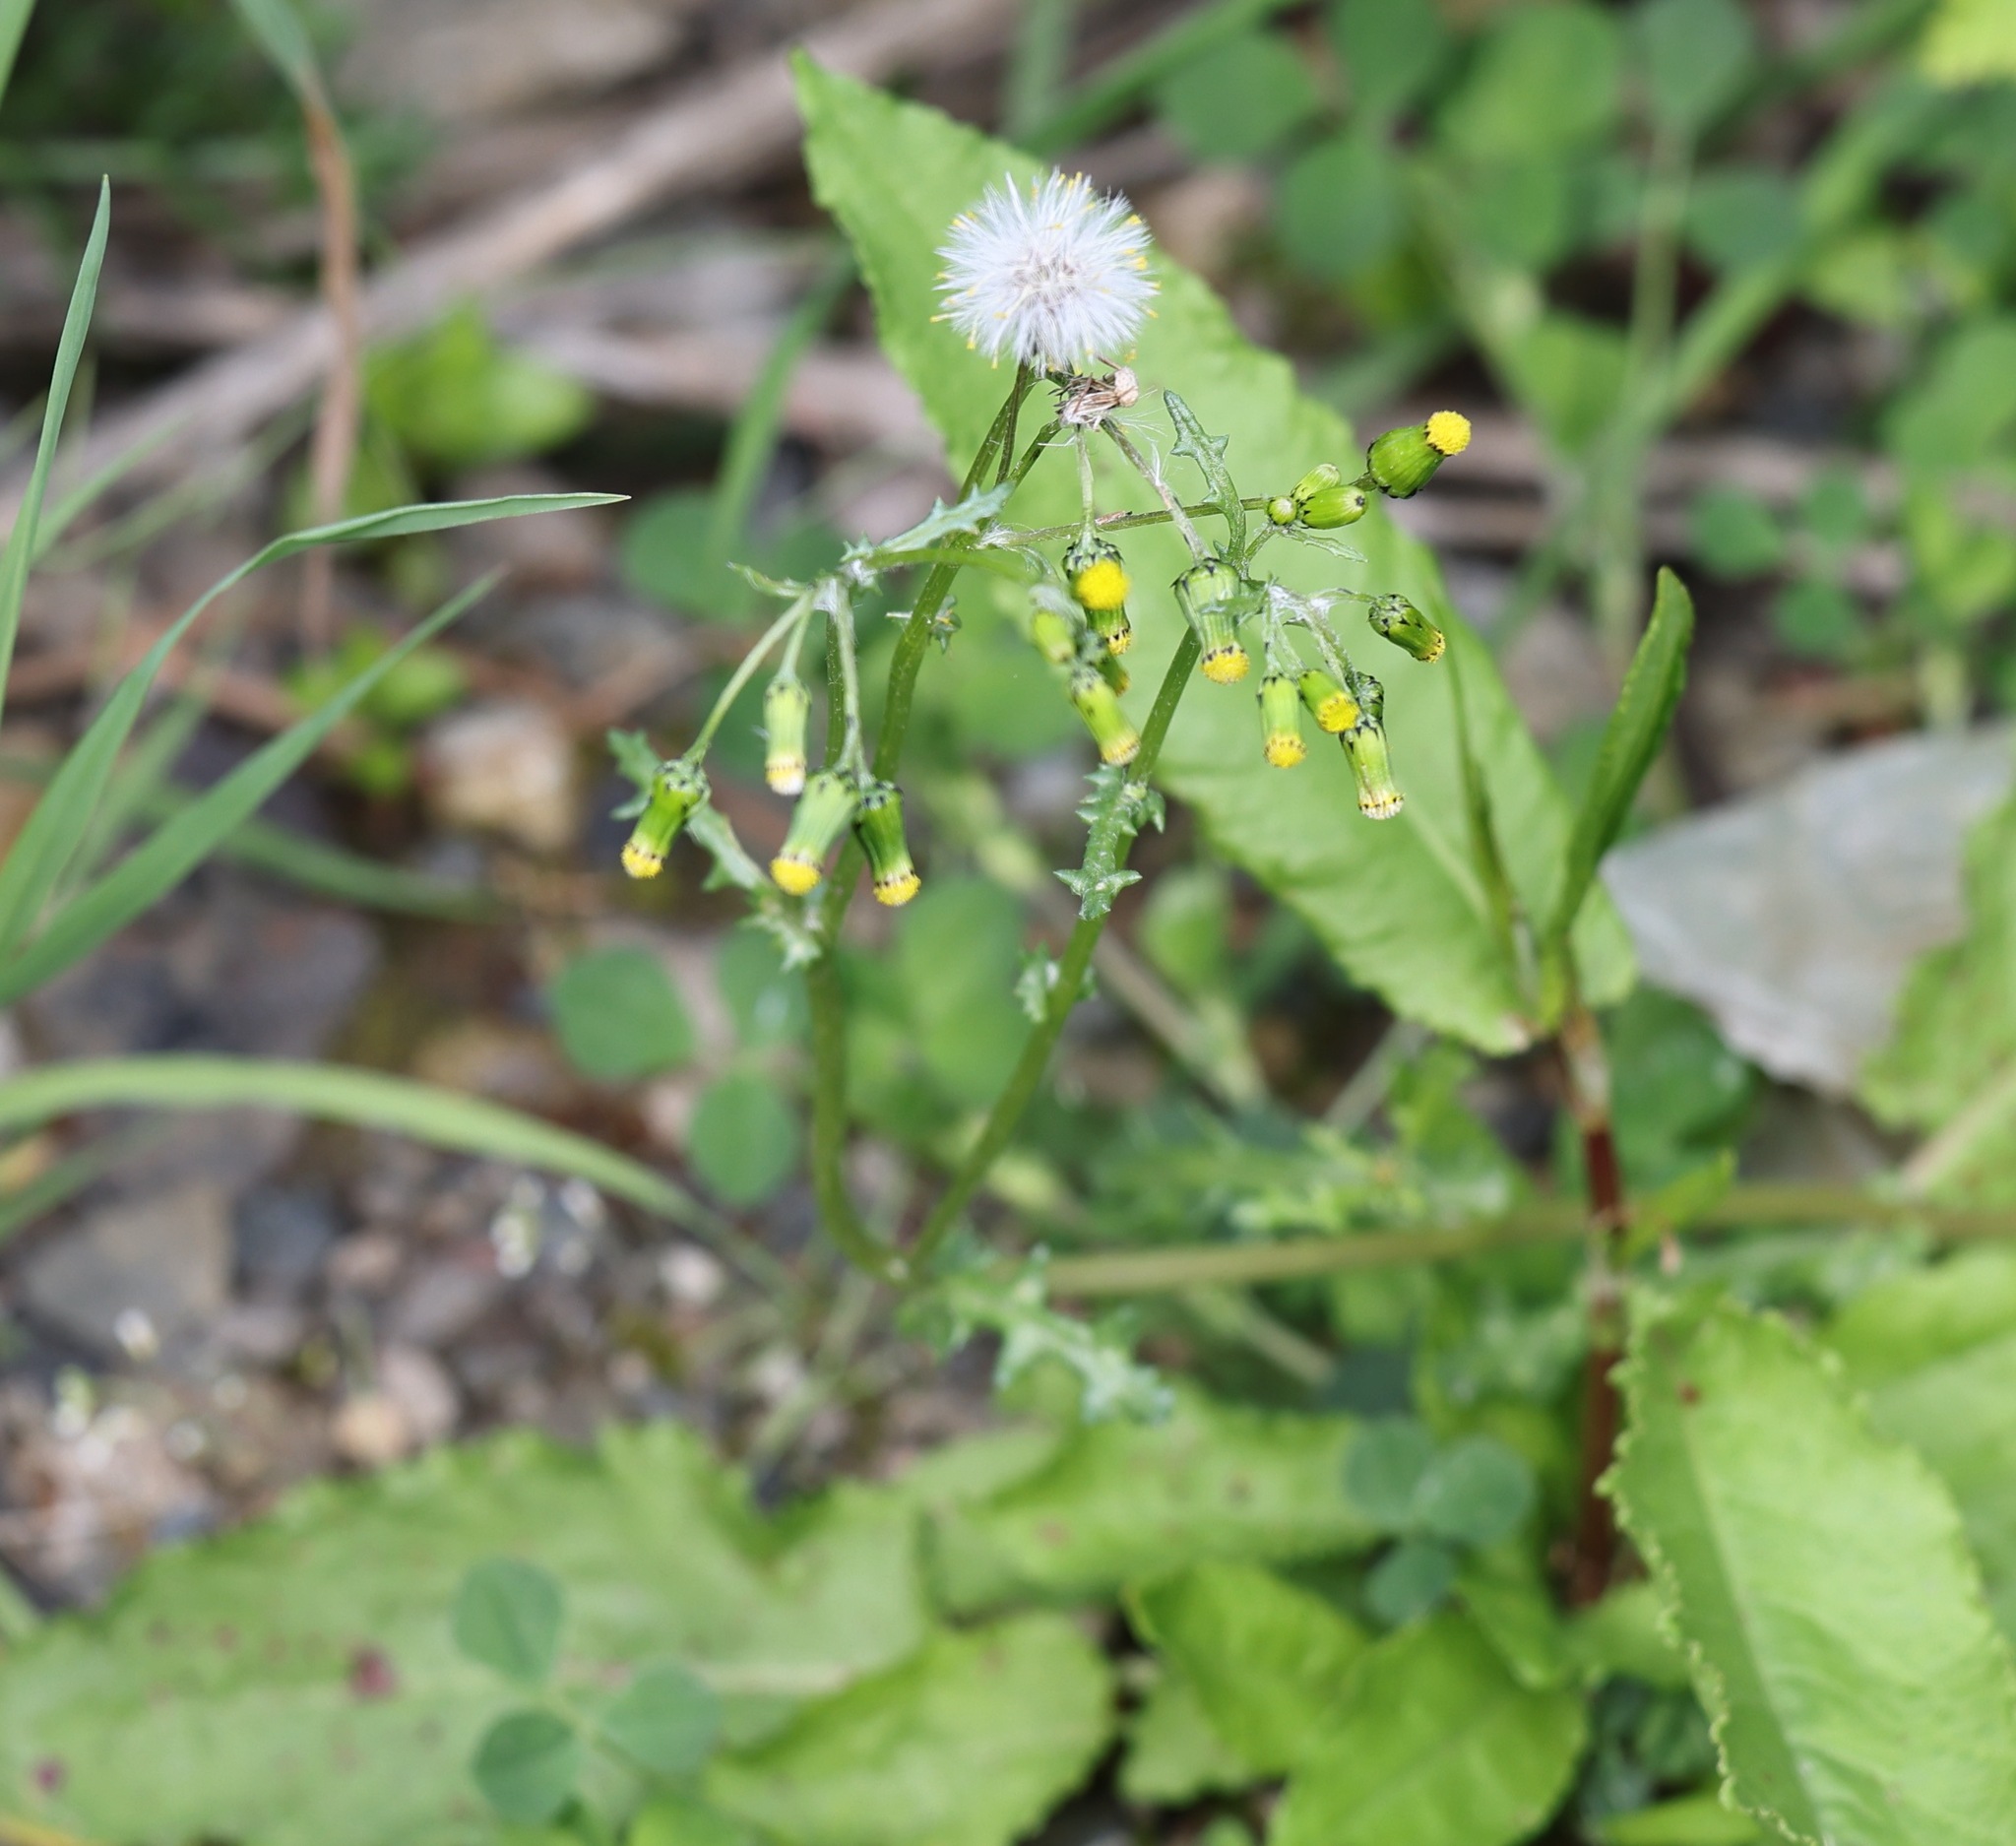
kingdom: Plantae
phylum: Tracheophyta
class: Magnoliopsida
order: Asterales
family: Asteraceae
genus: Senecio
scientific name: Senecio vulgaris
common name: Old-man-in-the-spring
